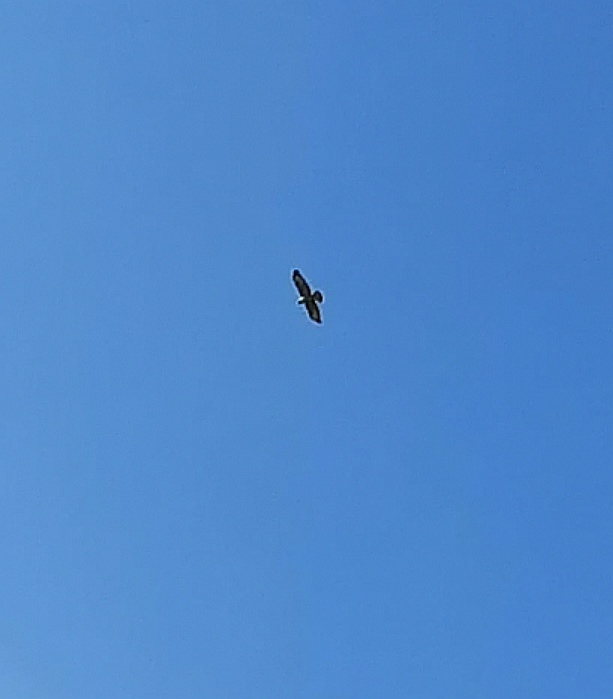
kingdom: Animalia
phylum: Chordata
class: Aves
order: Accipitriformes
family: Accipitridae
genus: Buteo
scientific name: Buteo buteo
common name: Common buzzard
